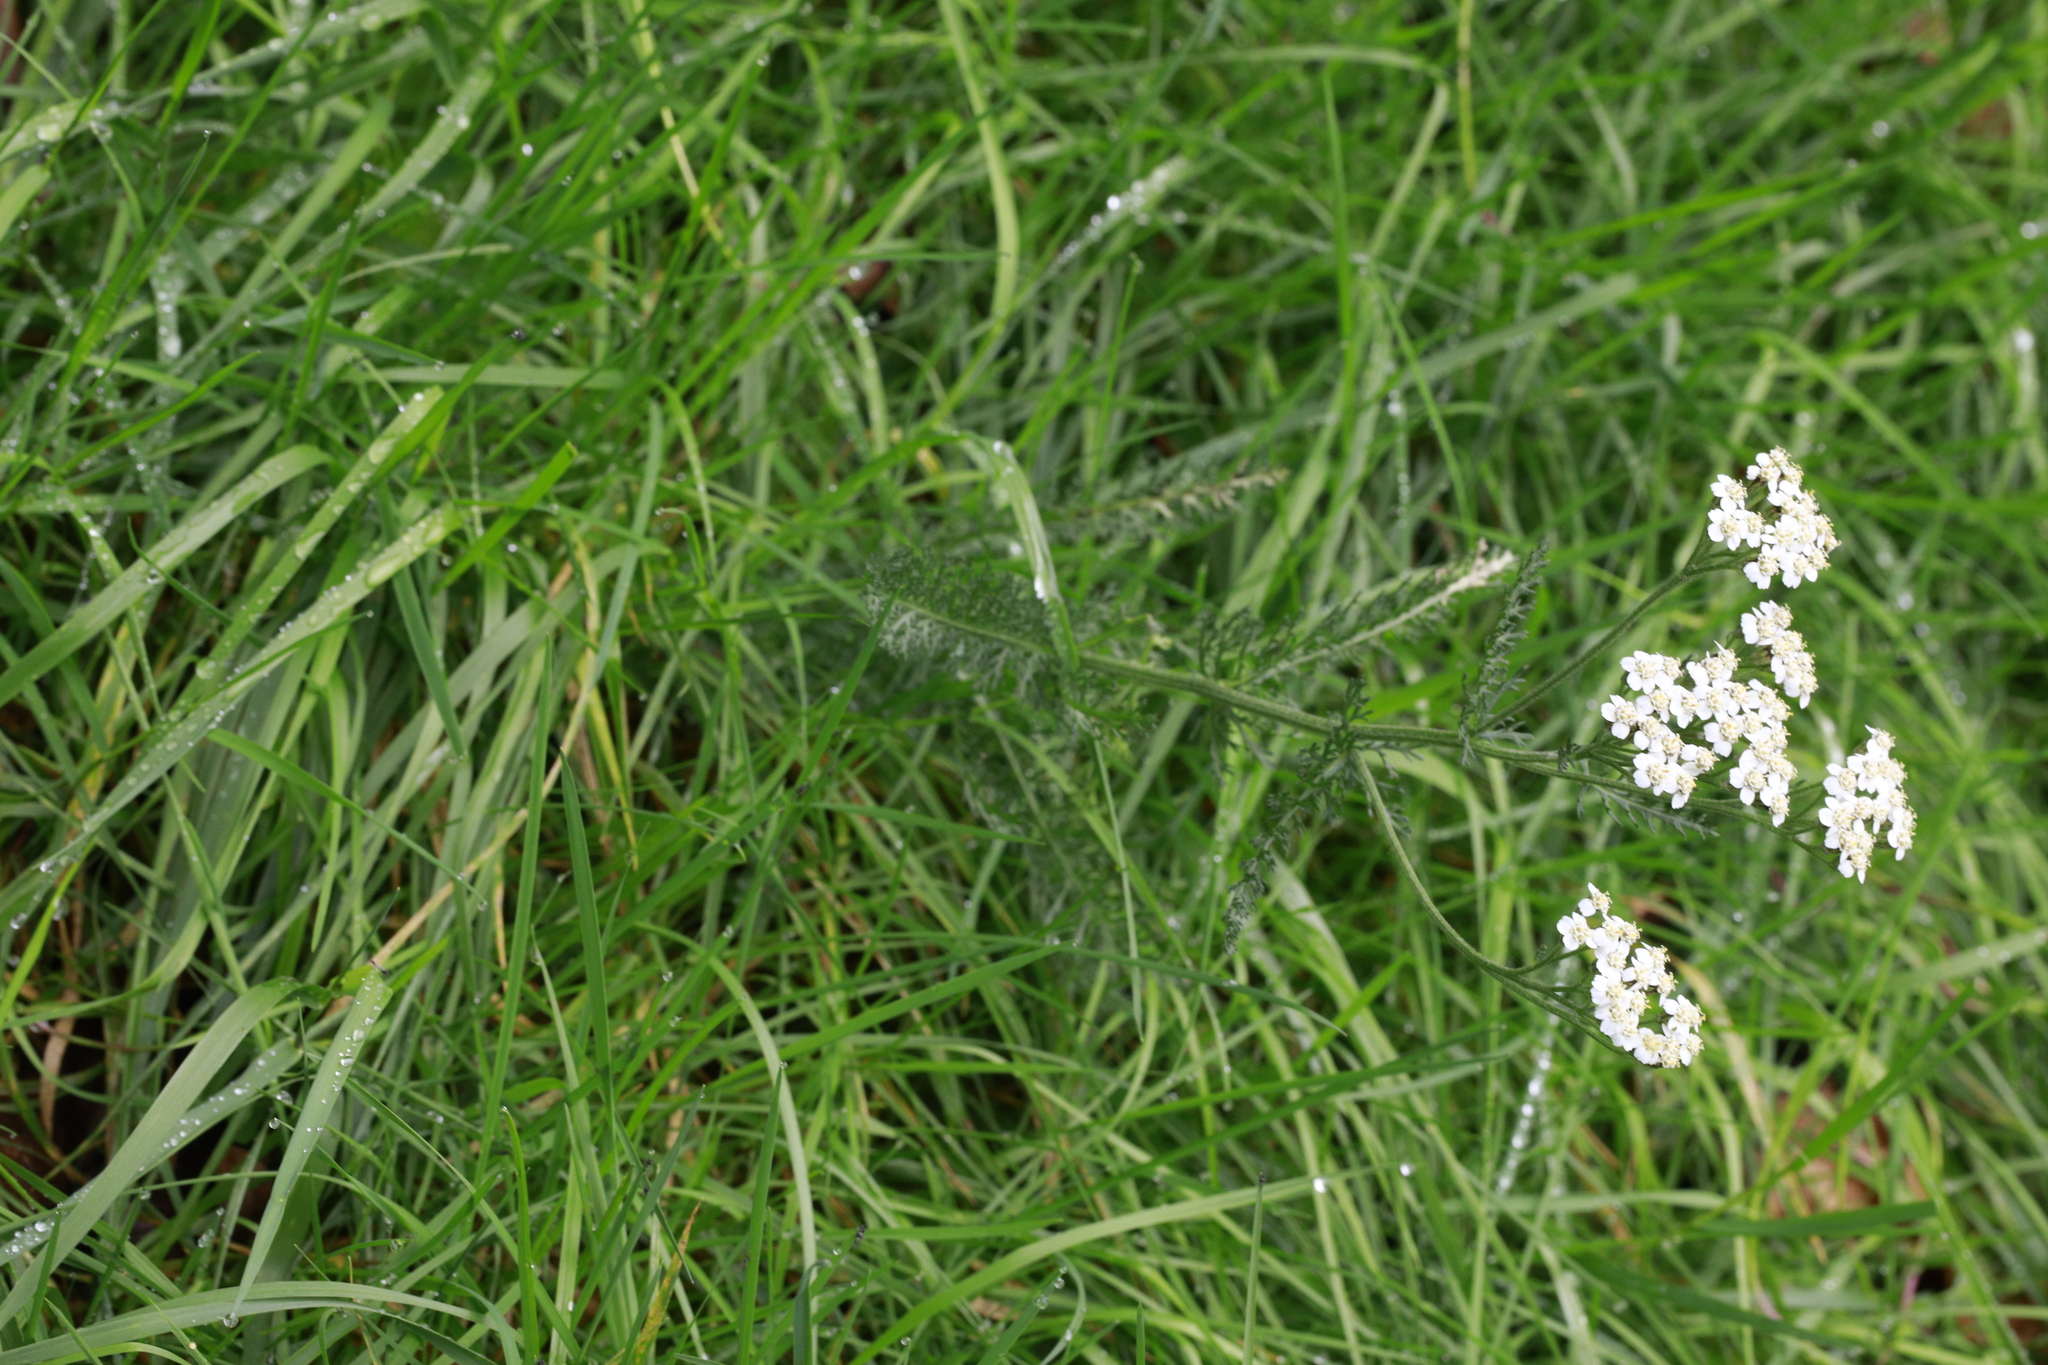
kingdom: Plantae
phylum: Tracheophyta
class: Magnoliopsida
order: Asterales
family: Asteraceae
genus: Achillea
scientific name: Achillea millefolium
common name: Yarrow
